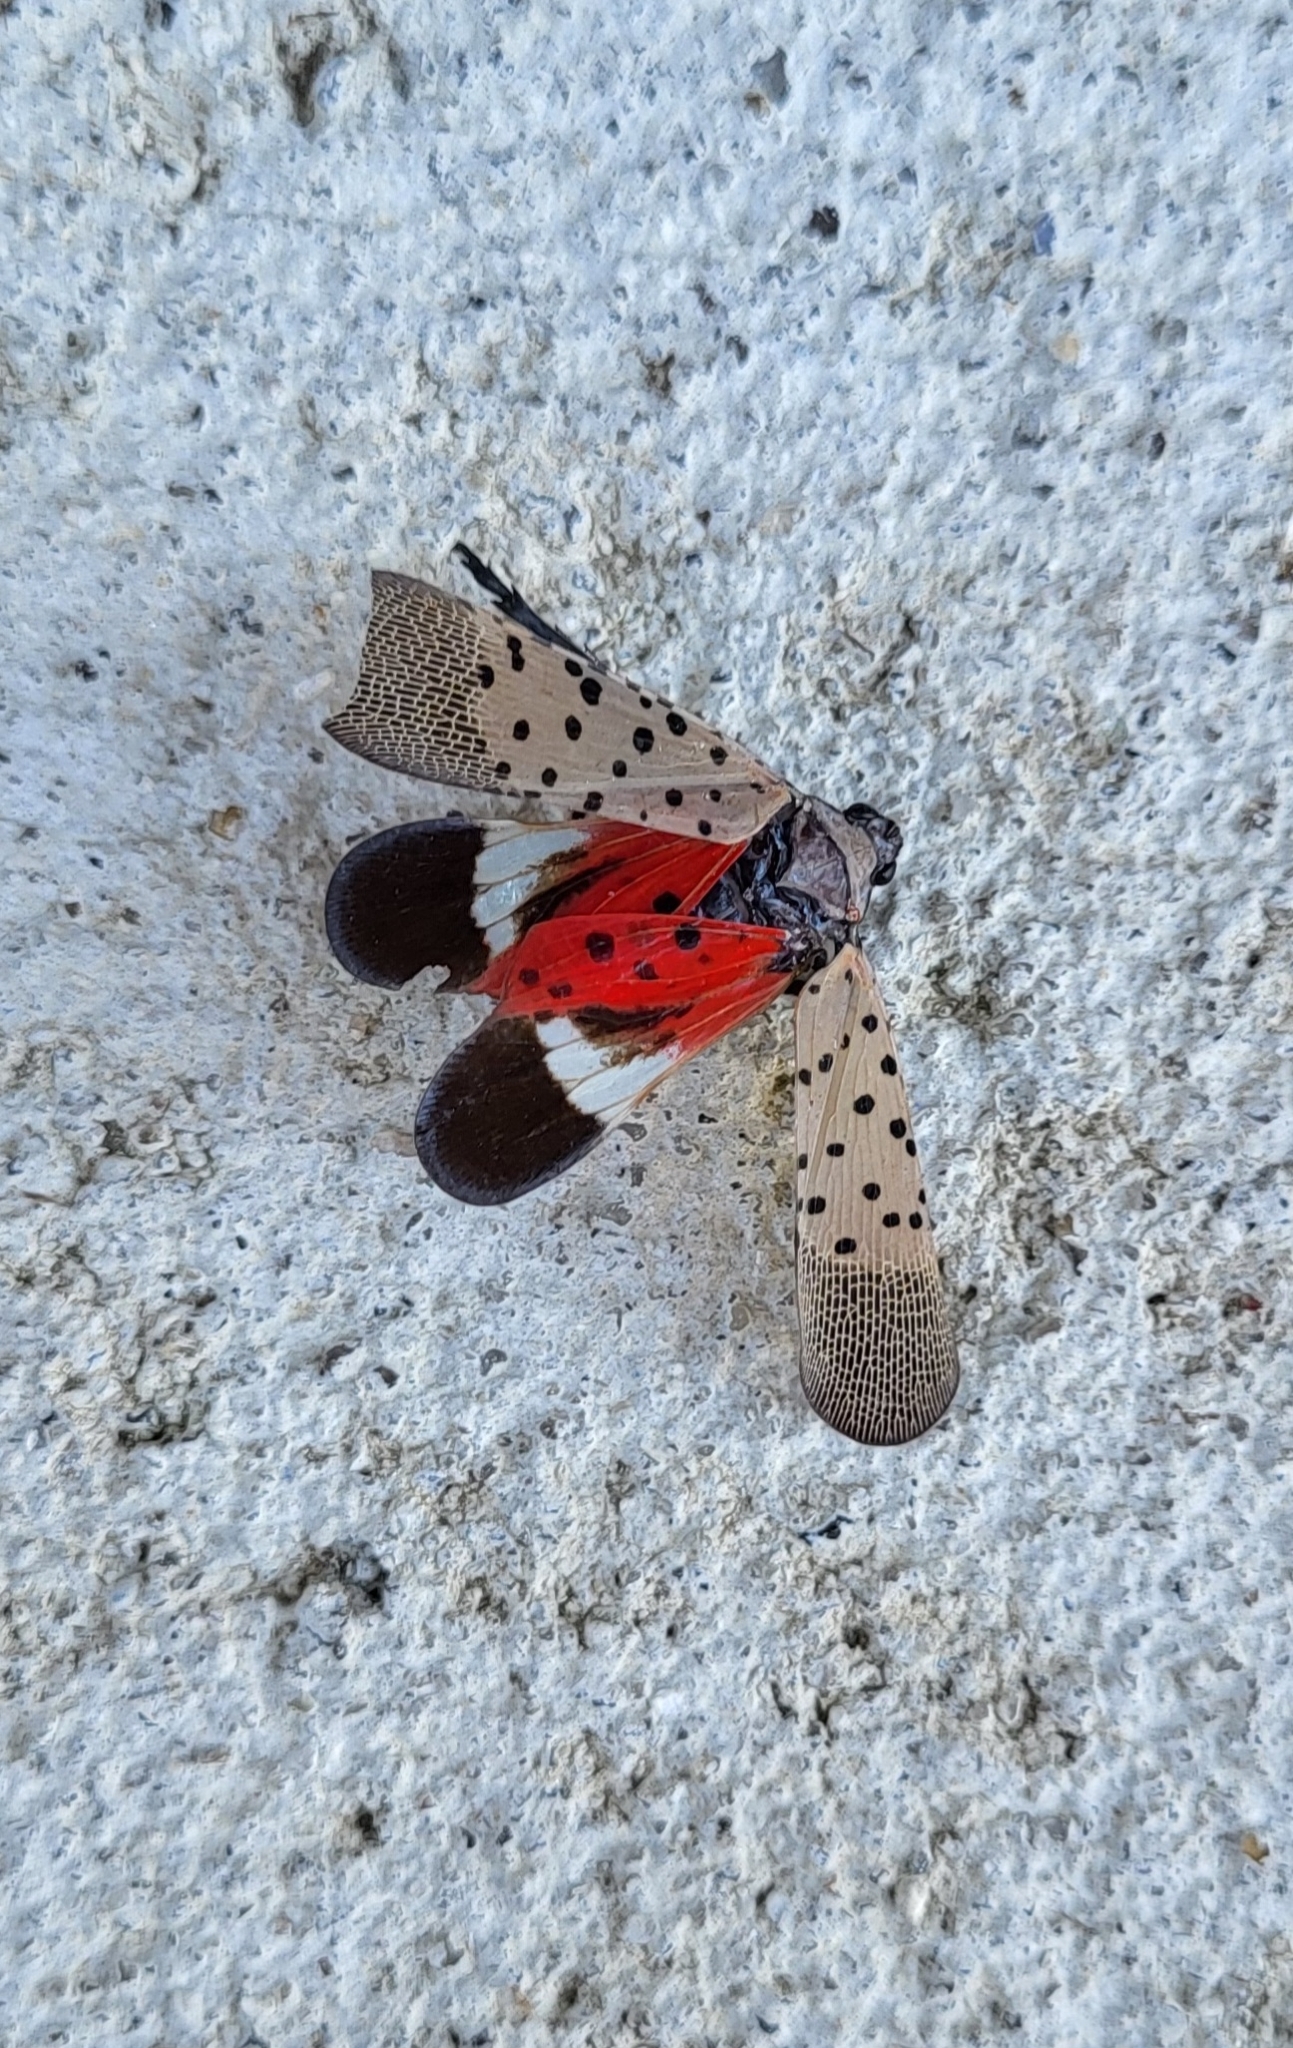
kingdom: Animalia
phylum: Arthropoda
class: Insecta
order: Hemiptera
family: Fulgoridae
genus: Lycorma
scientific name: Lycorma delicatula
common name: Spotted lanternfly
